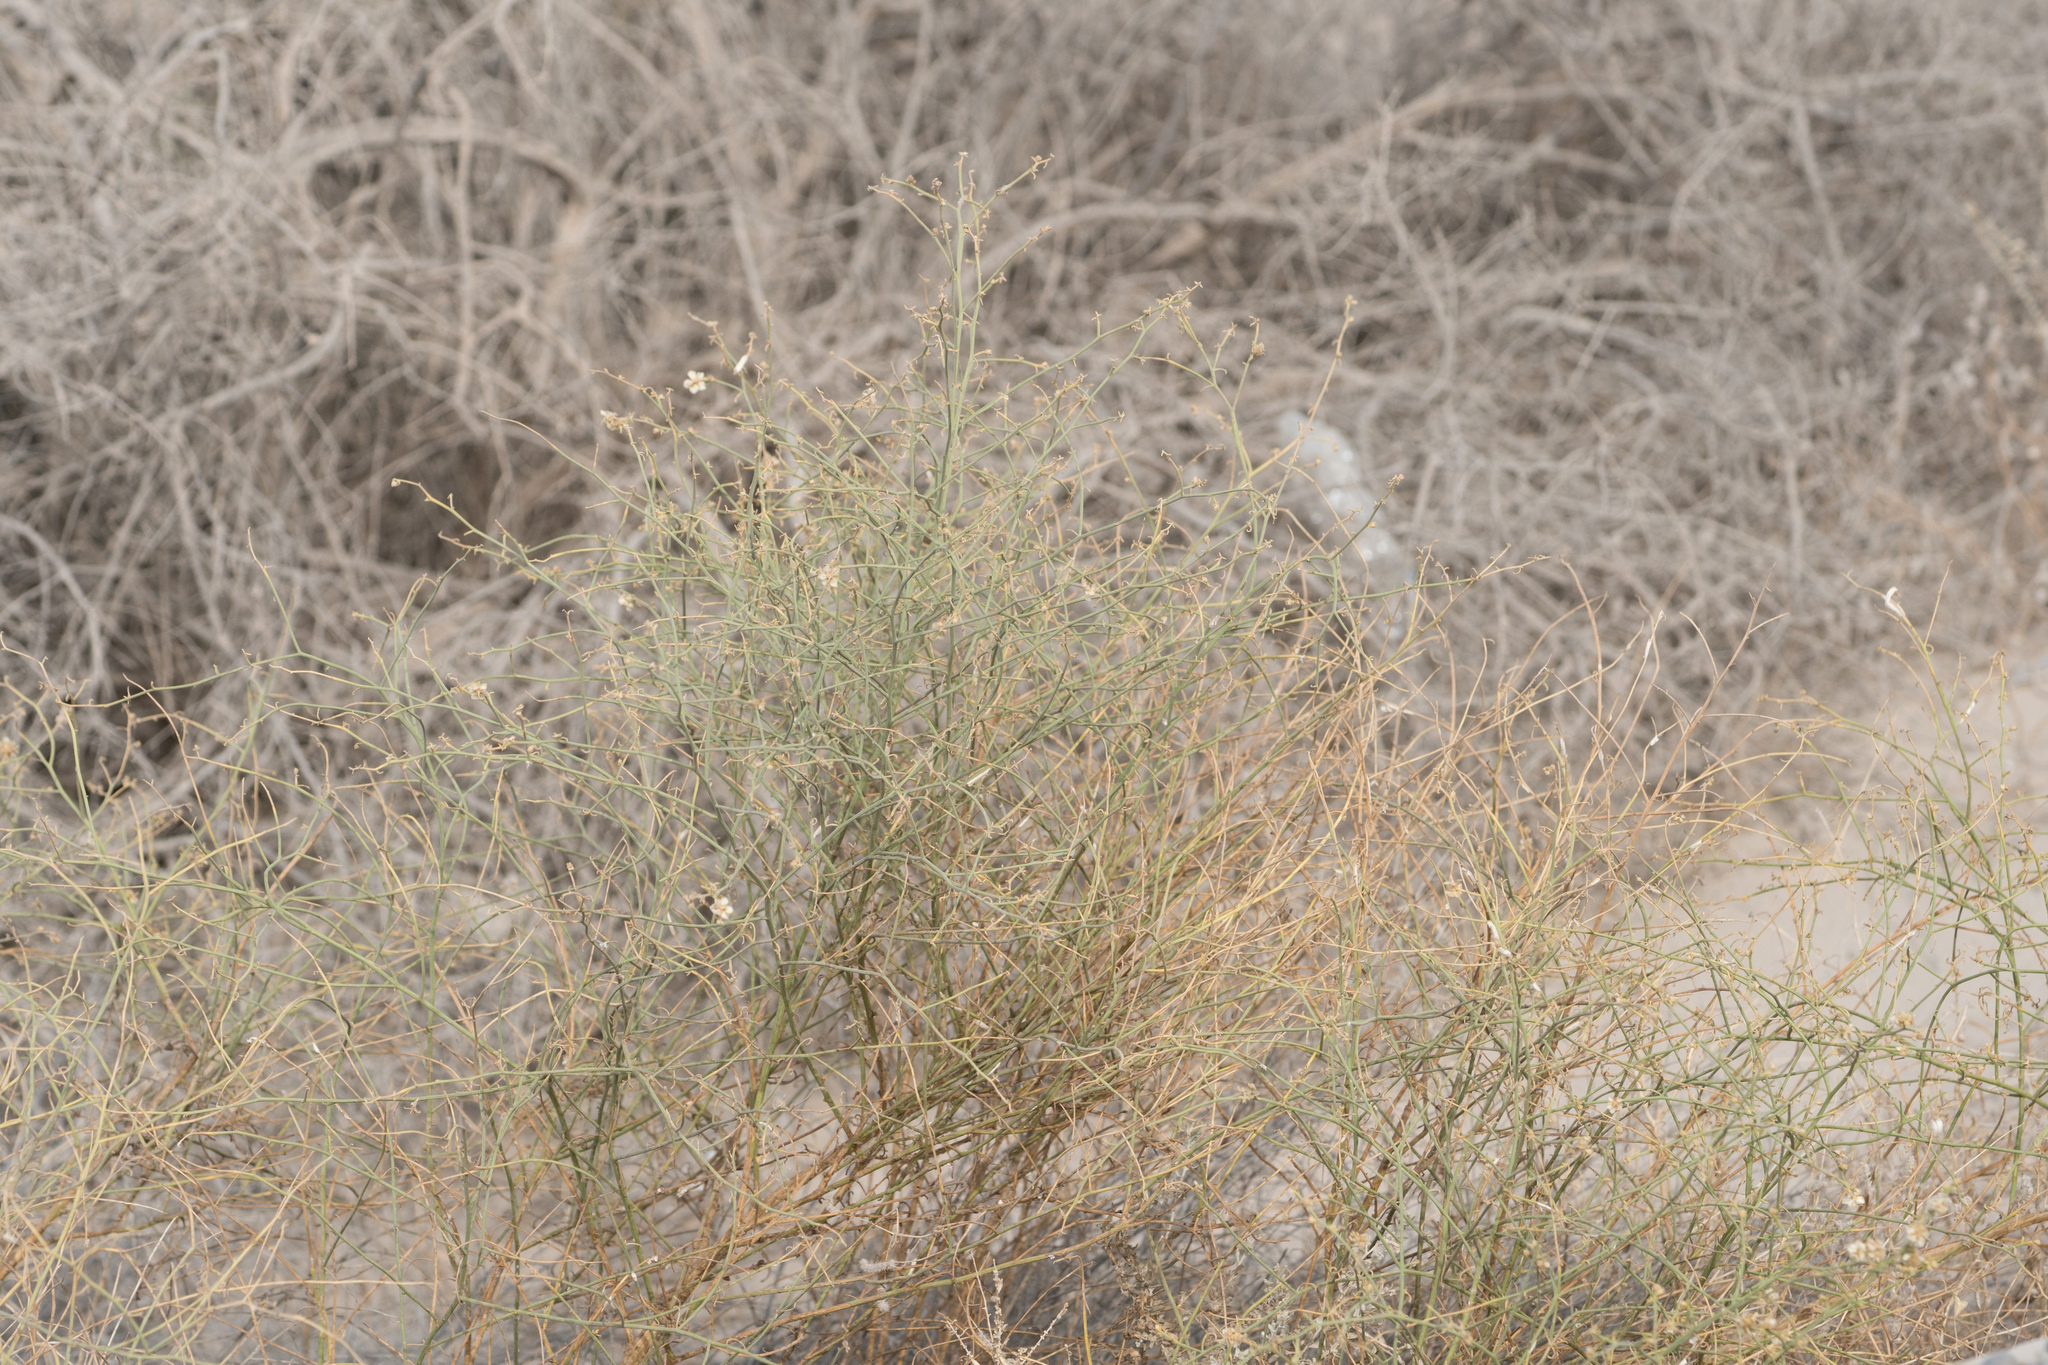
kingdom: Plantae
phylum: Tracheophyta
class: Magnoliopsida
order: Asterales
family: Asteraceae
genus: Ambrosia
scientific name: Ambrosia salsola
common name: Burrobrush
